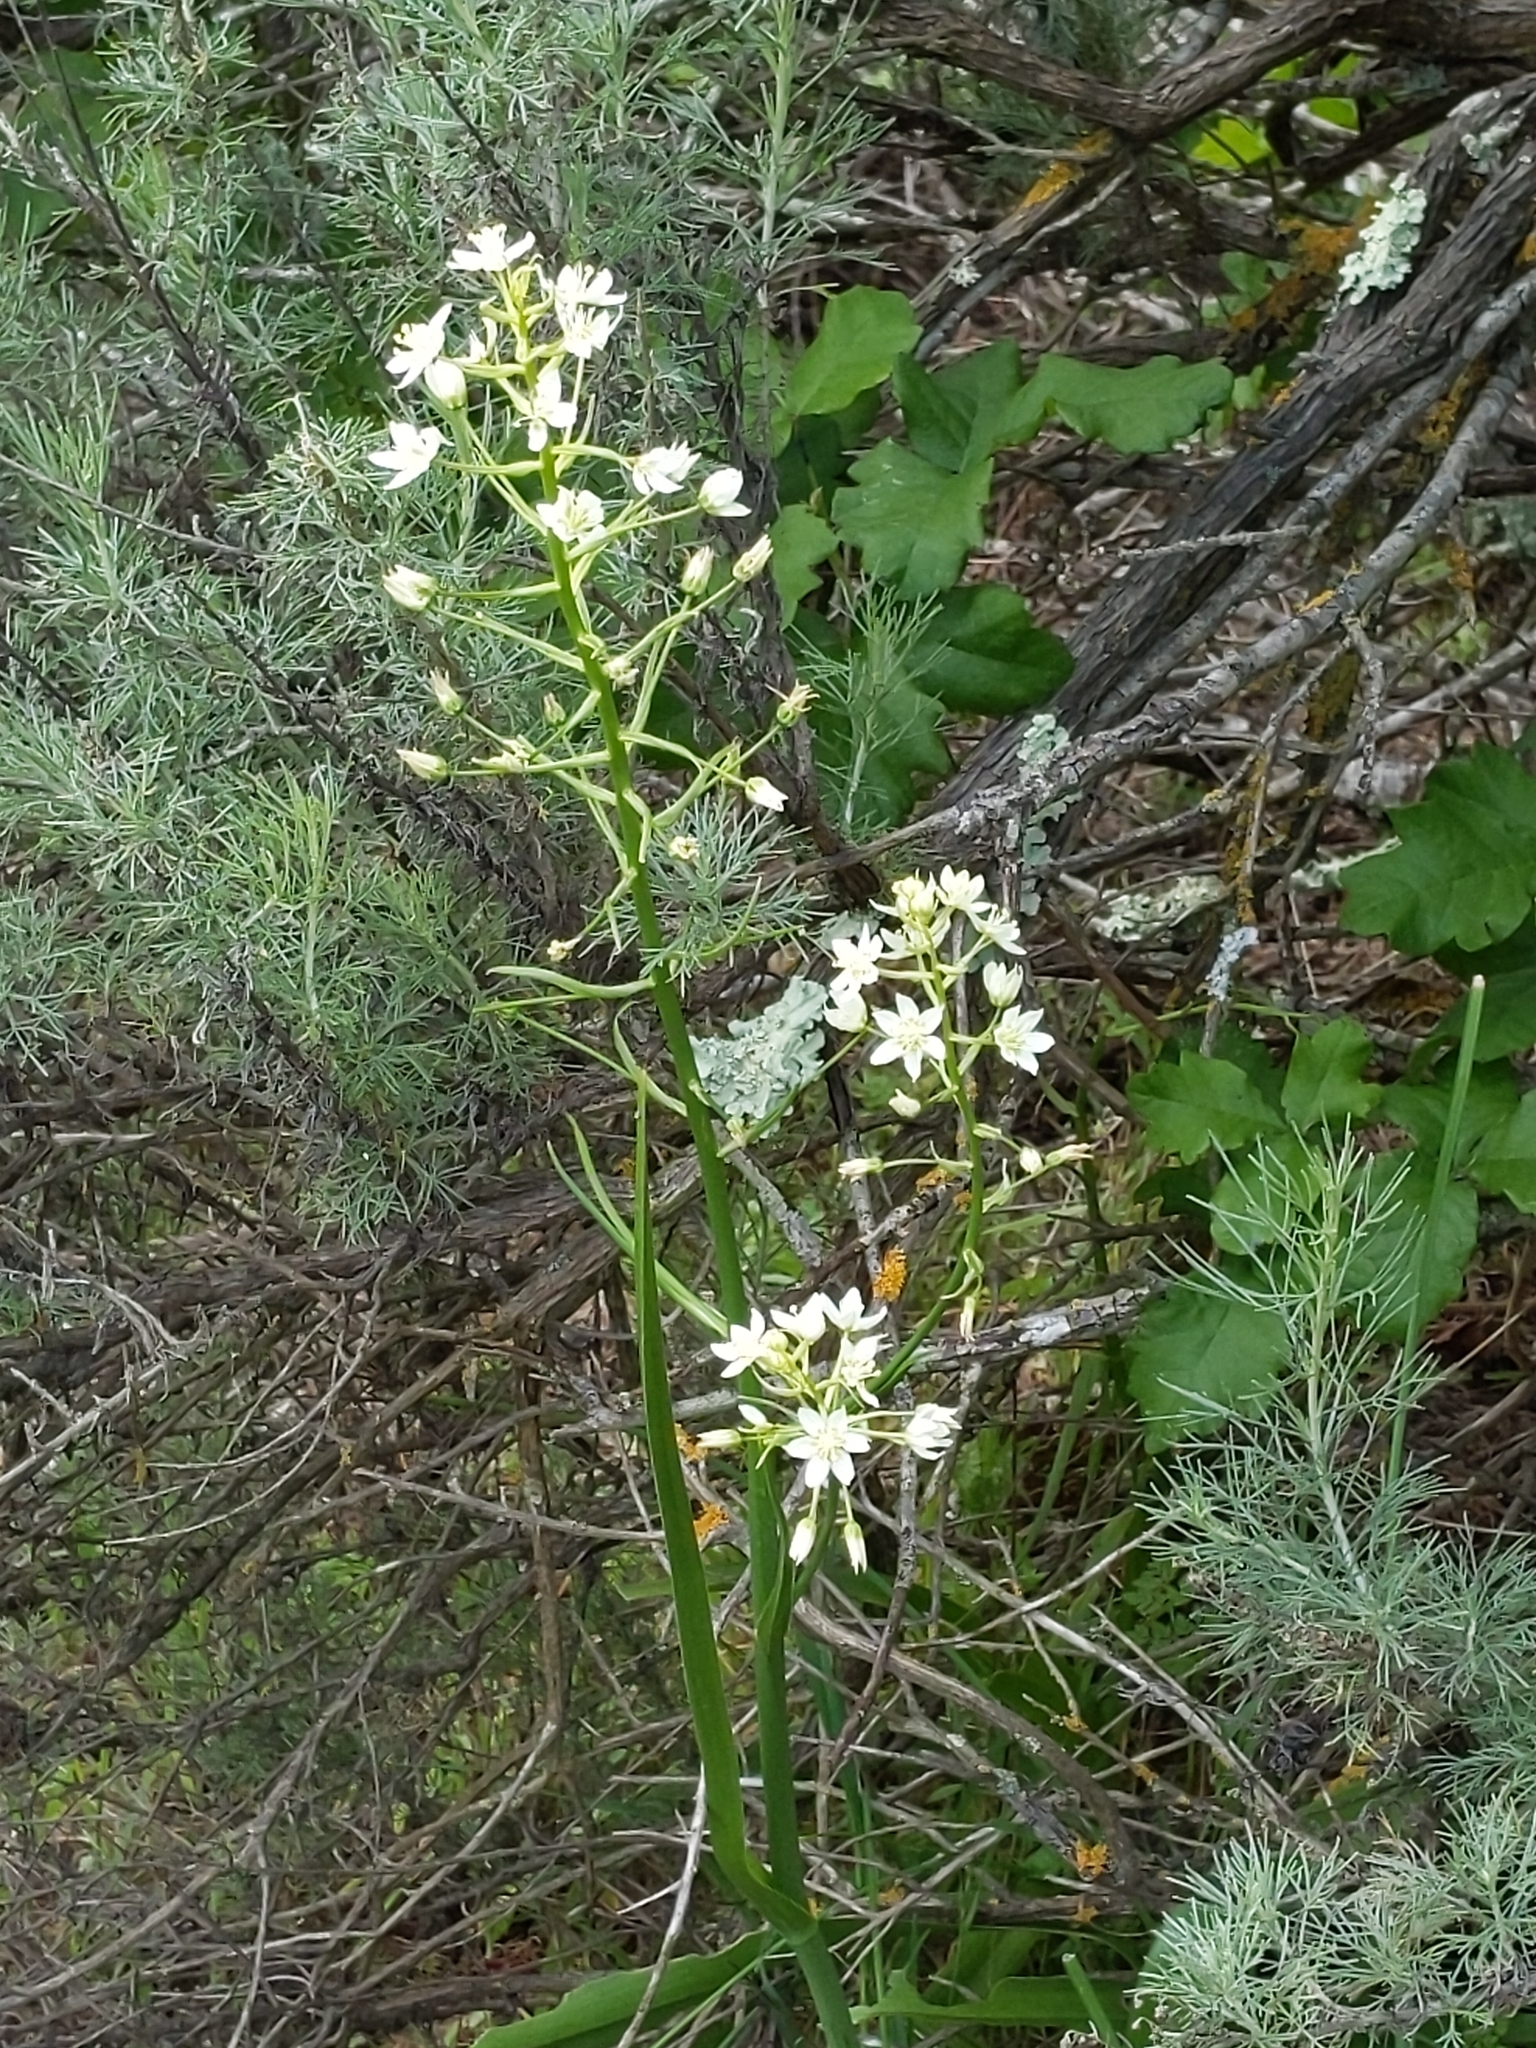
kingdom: Plantae
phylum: Tracheophyta
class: Liliopsida
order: Liliales
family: Melanthiaceae
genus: Toxicoscordion
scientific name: Toxicoscordion fremontii
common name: Fremont's death camas
